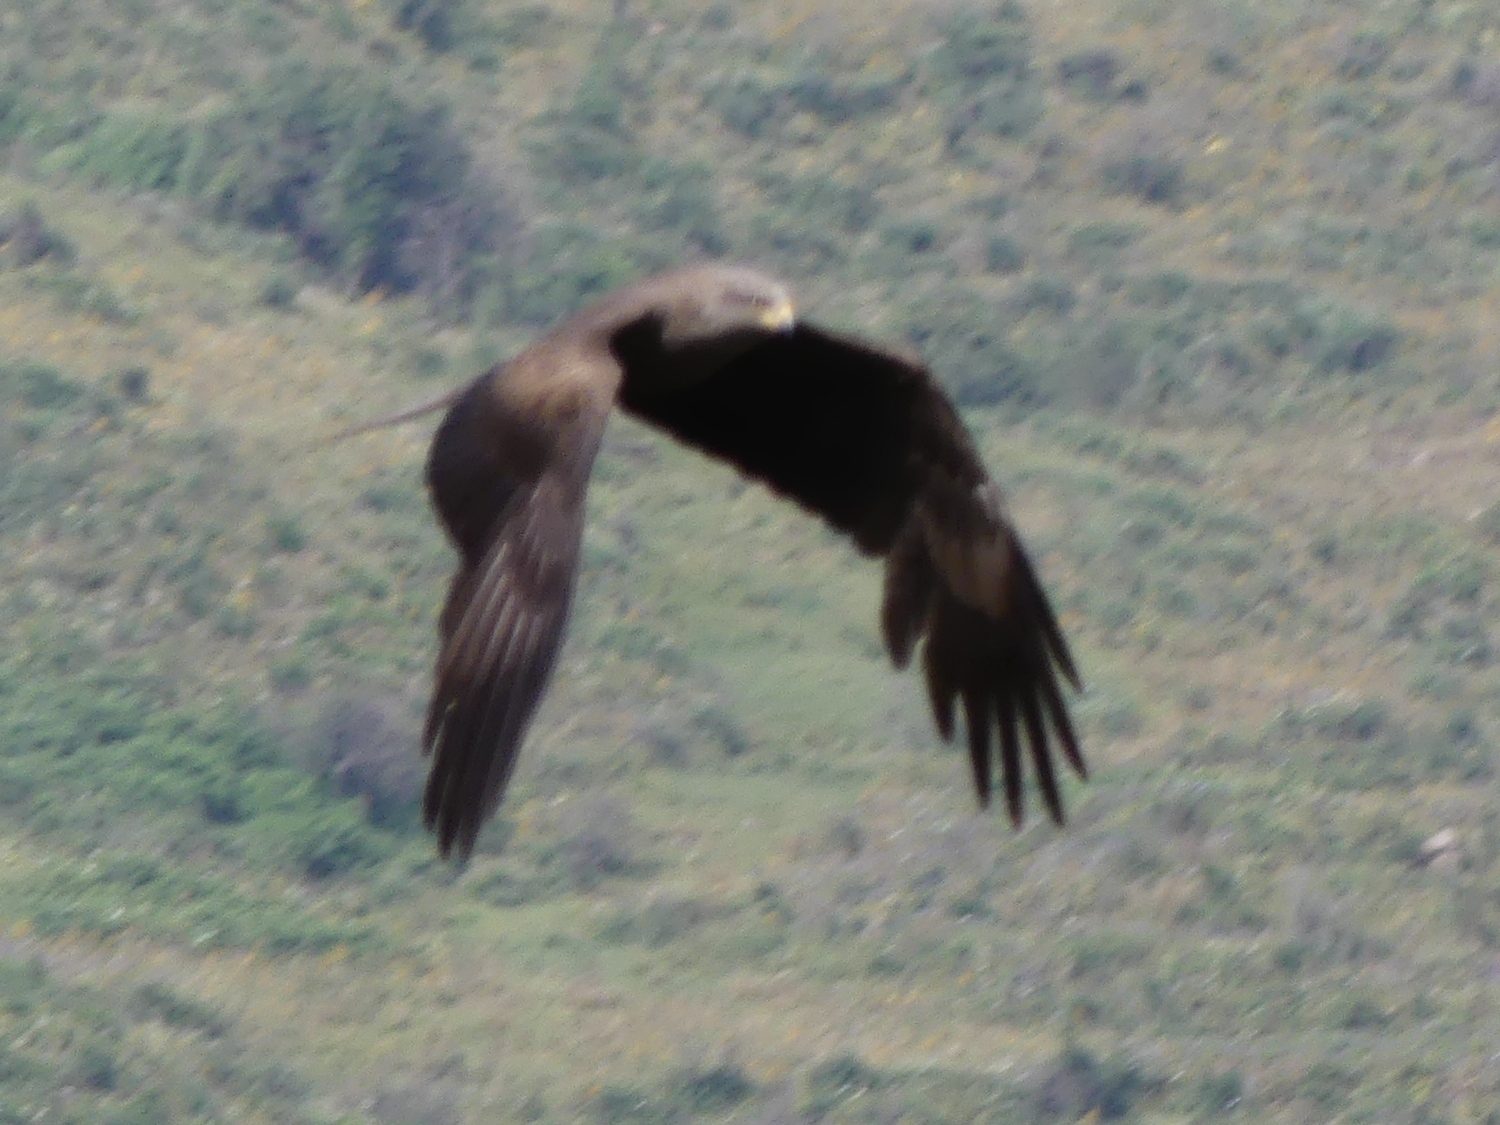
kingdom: Animalia
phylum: Chordata
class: Aves
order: Accipitriformes
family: Accipitridae
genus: Milvus
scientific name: Milvus migrans
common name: Black kite
